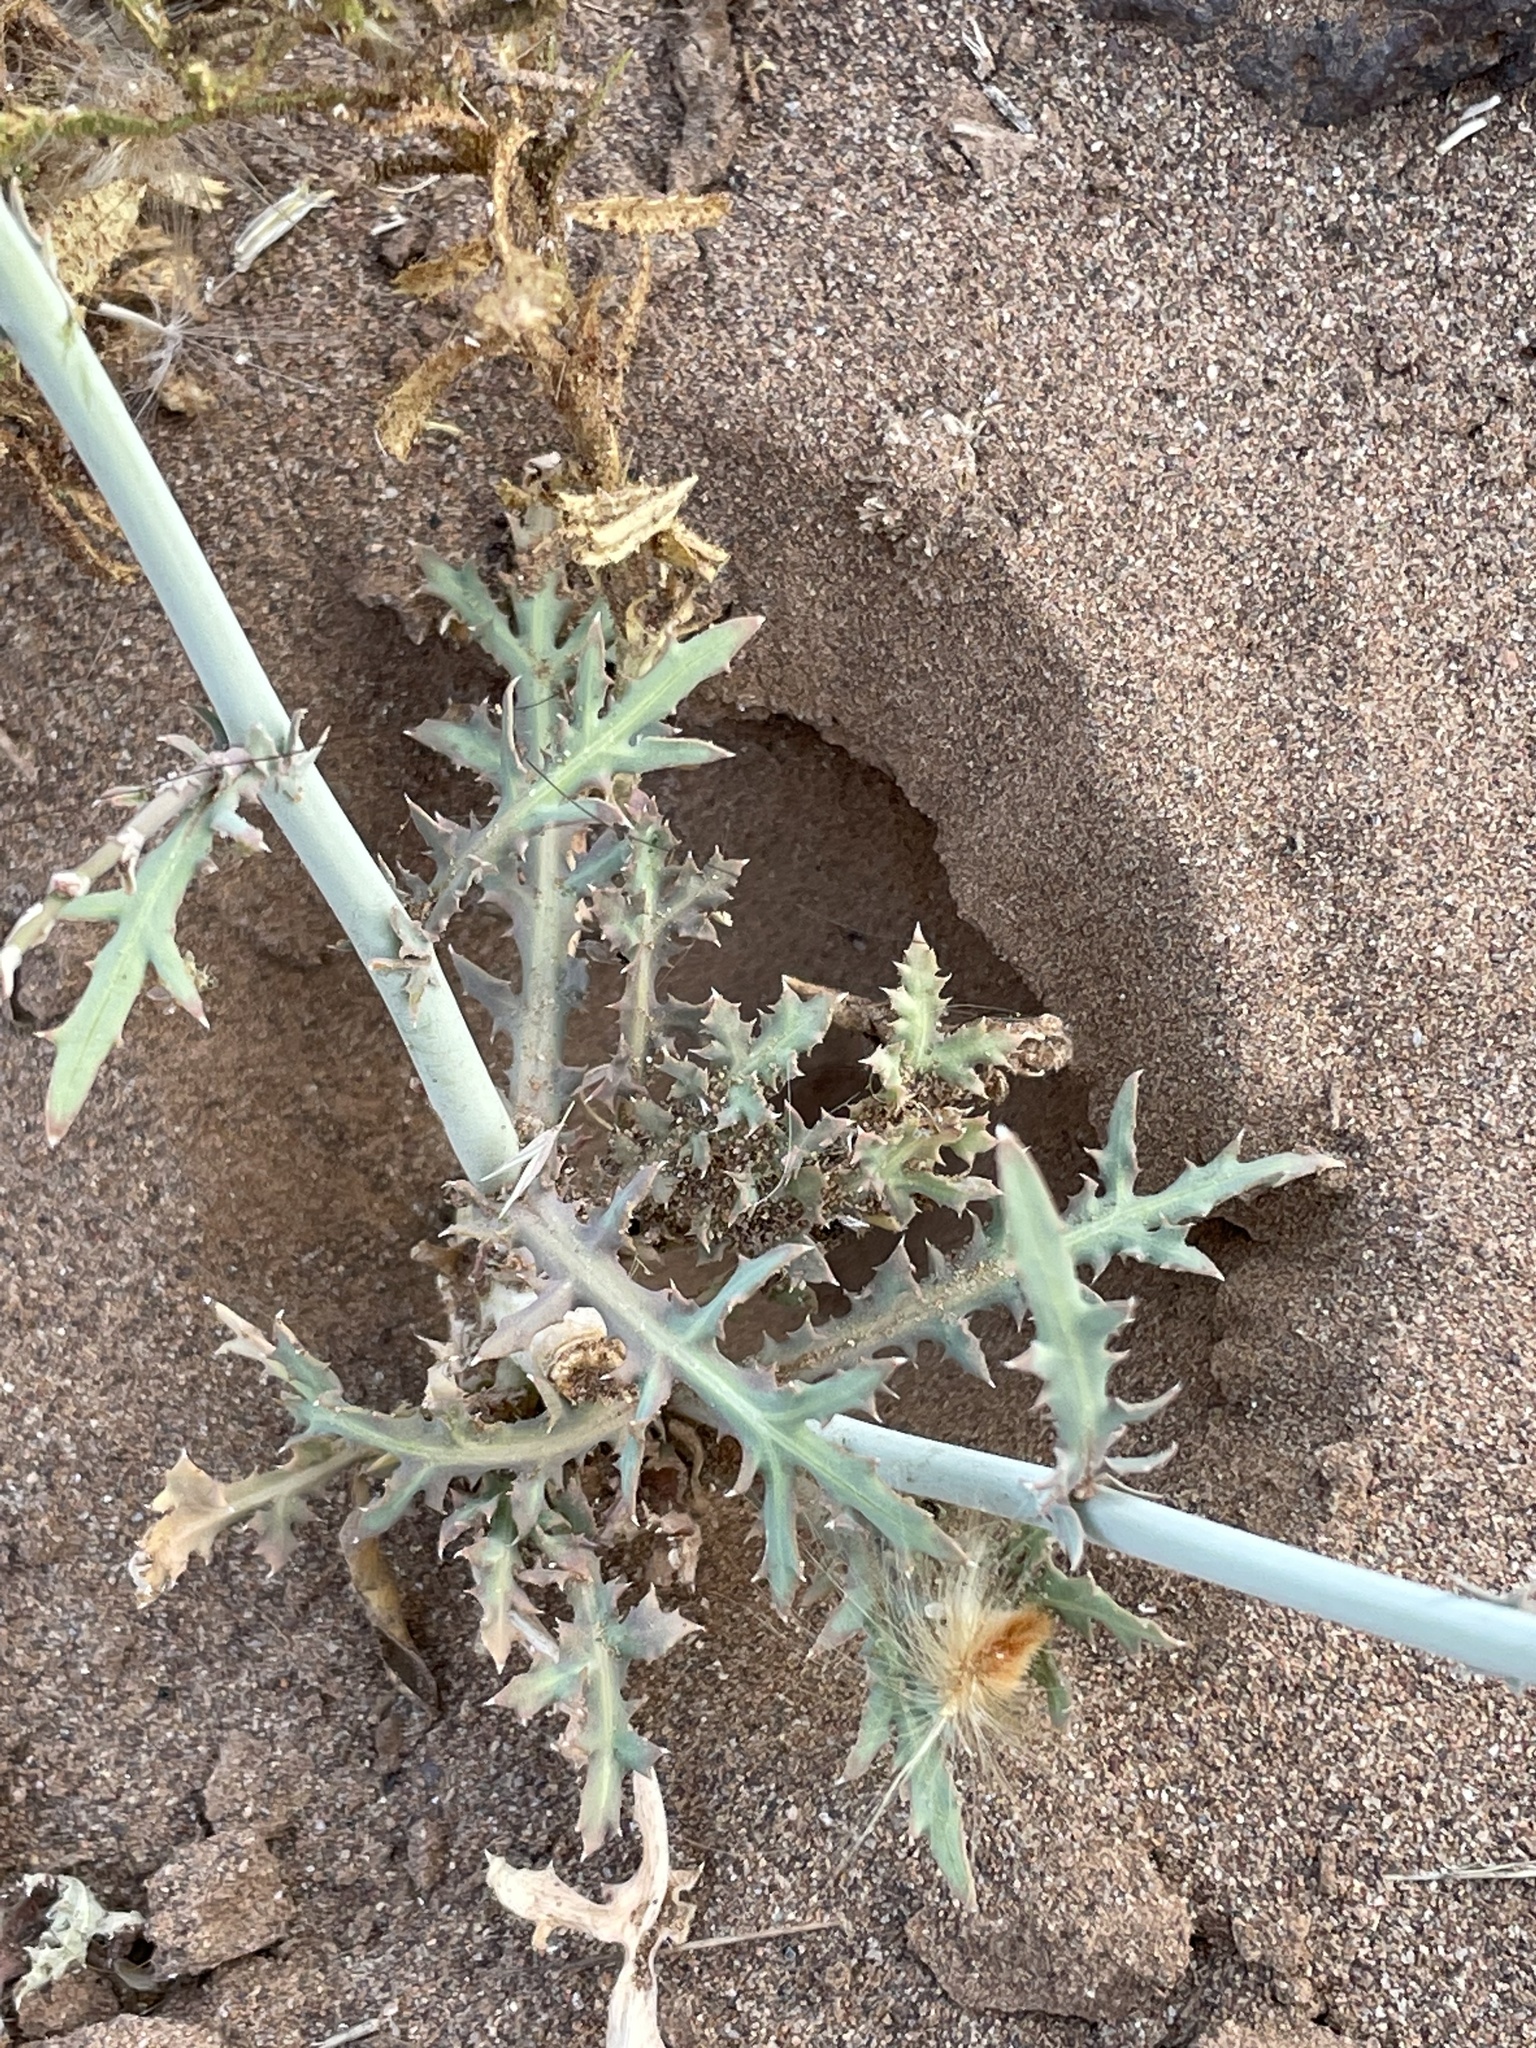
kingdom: Plantae
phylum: Tracheophyta
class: Magnoliopsida
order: Asterales
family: Asteraceae
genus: Launaea
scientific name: Launaea mucronata
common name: Mucronate launea
